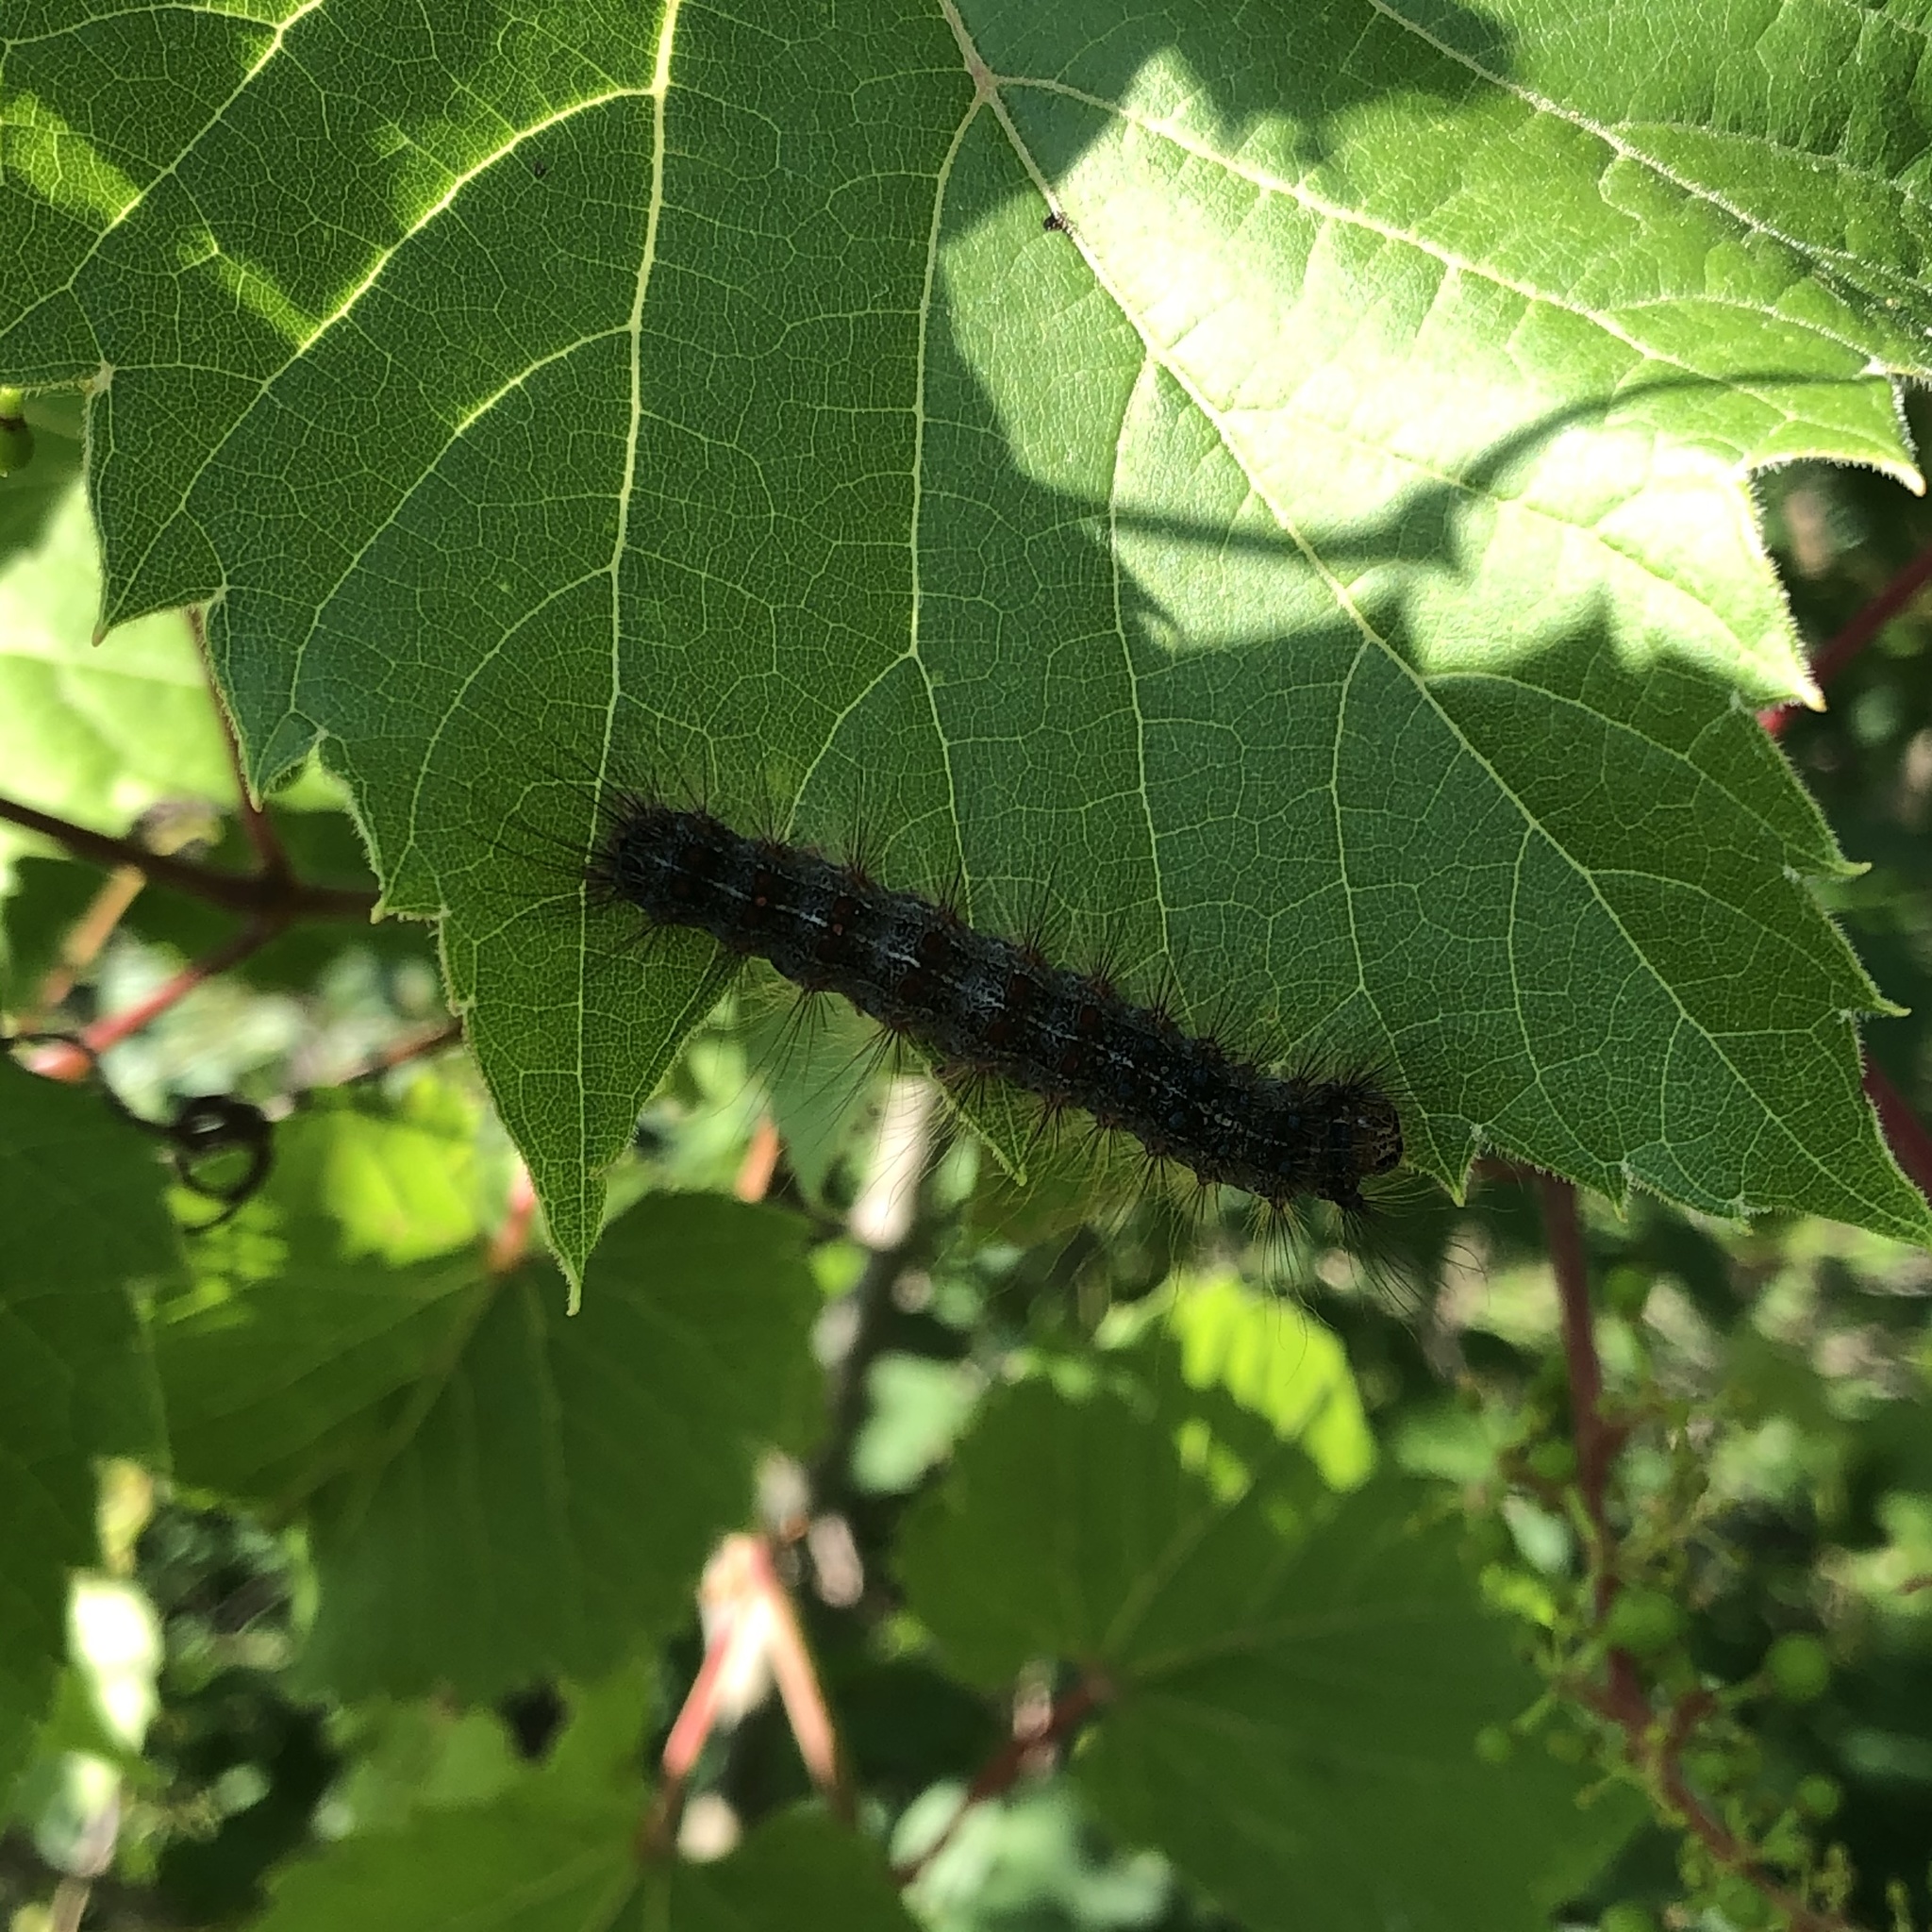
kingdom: Animalia
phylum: Arthropoda
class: Insecta
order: Lepidoptera
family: Erebidae
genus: Lymantria
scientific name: Lymantria dispar
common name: Gypsy moth
